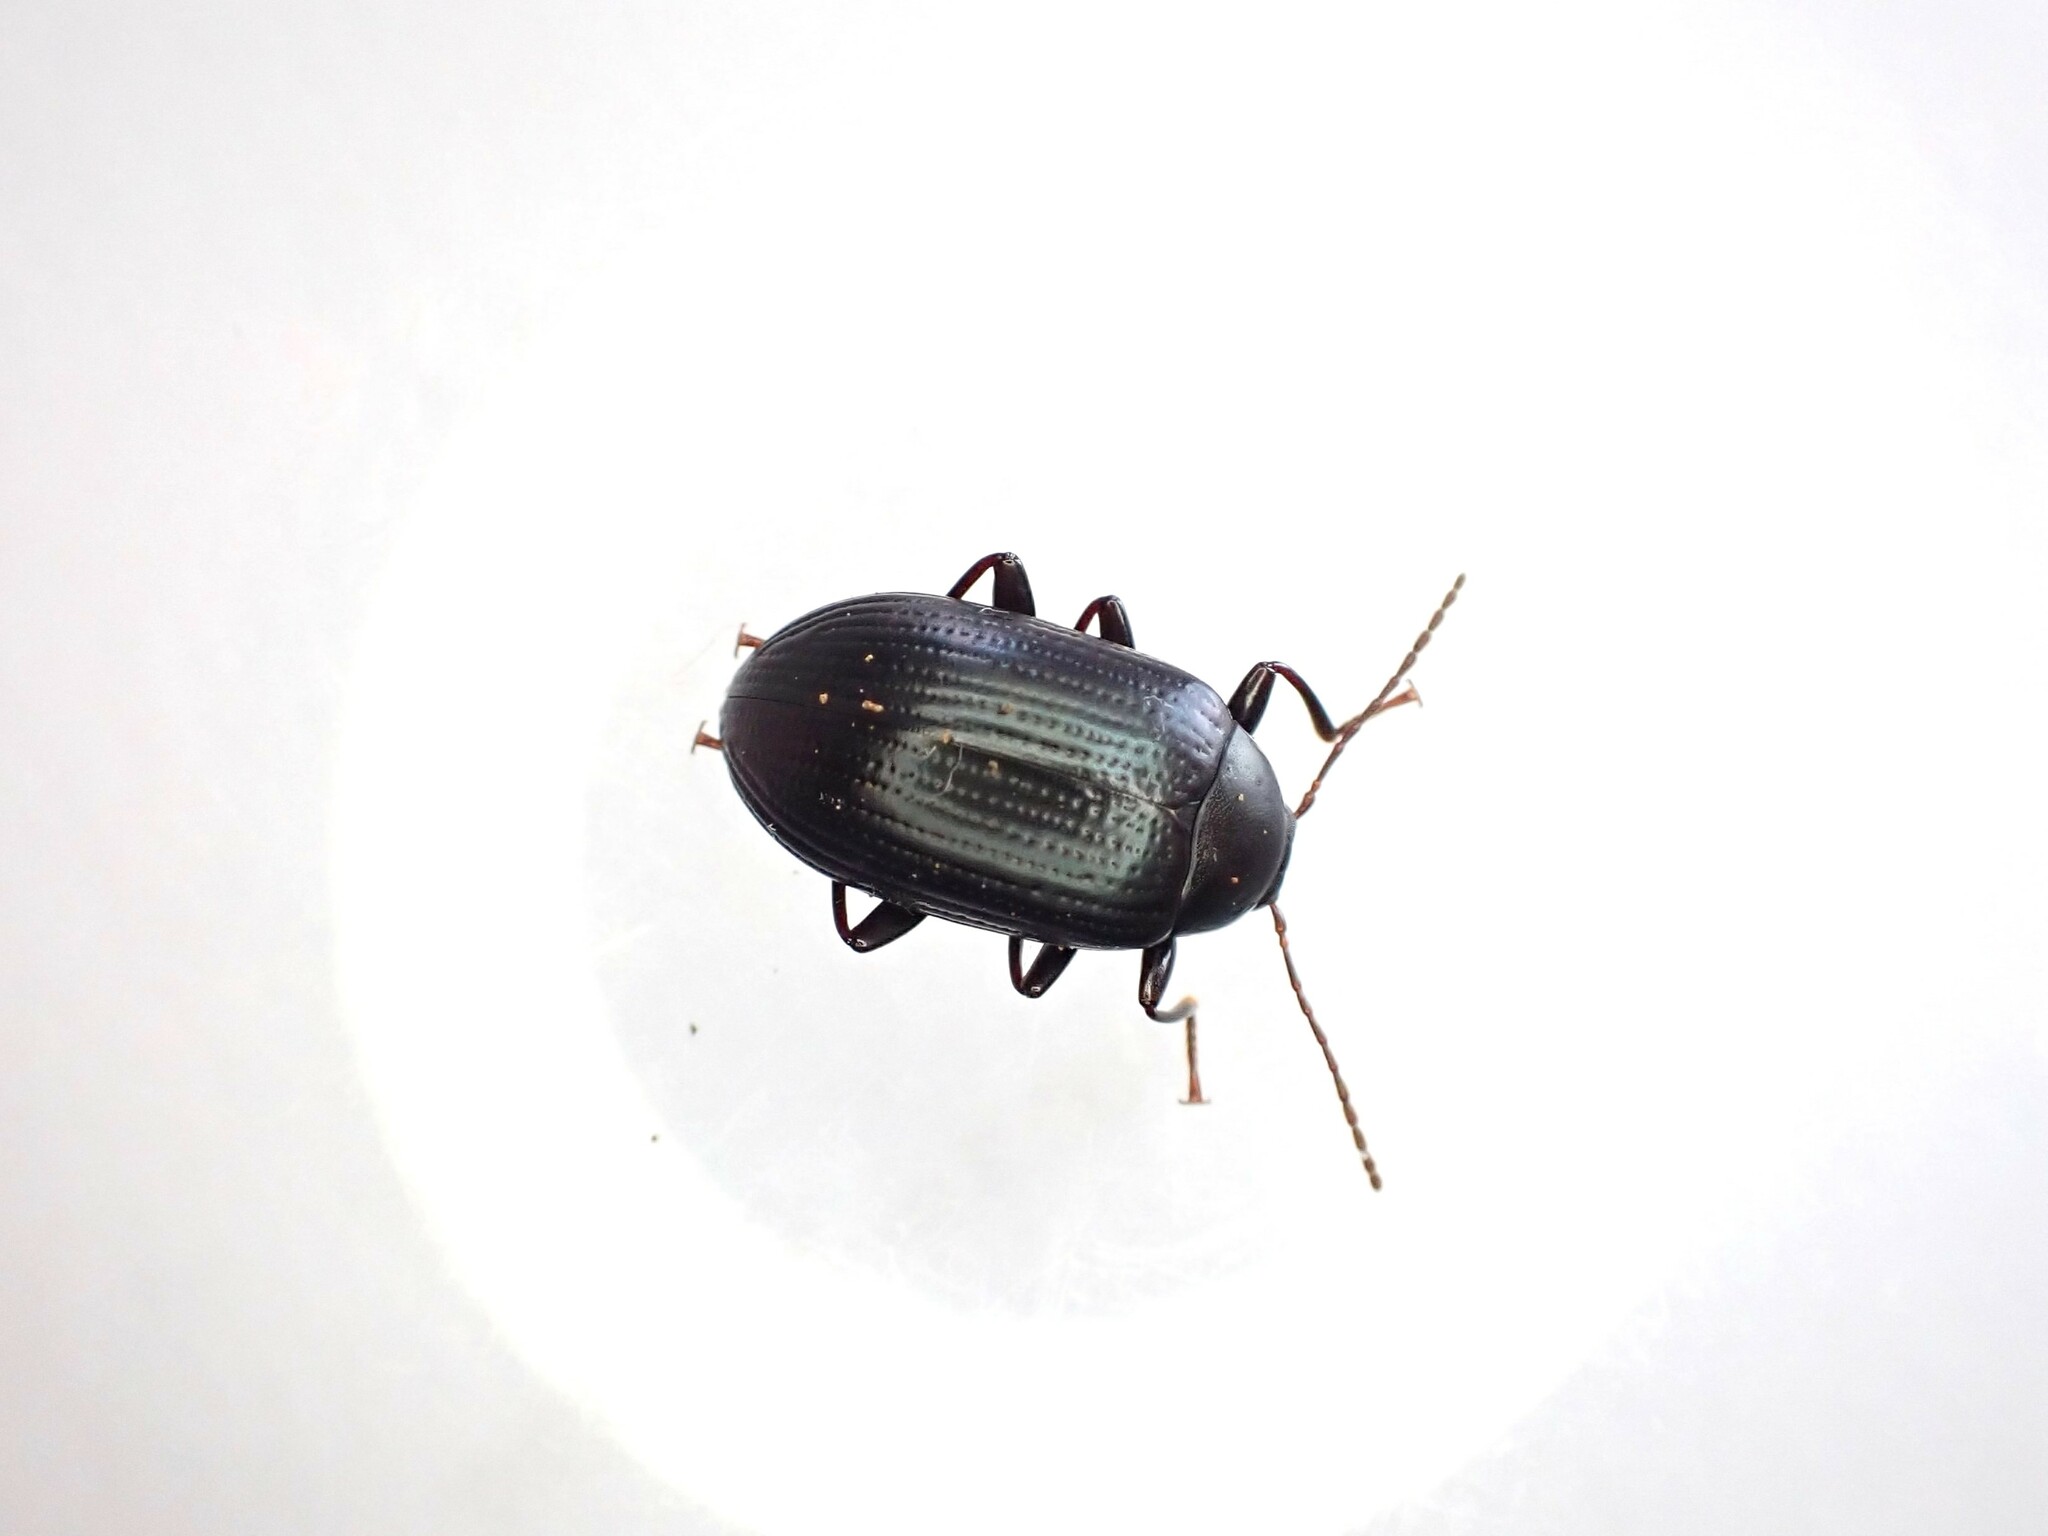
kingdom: Animalia
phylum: Arthropoda
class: Insecta
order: Coleoptera
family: Tenebrionidae
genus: Amarygmus
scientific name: Amarygmus
